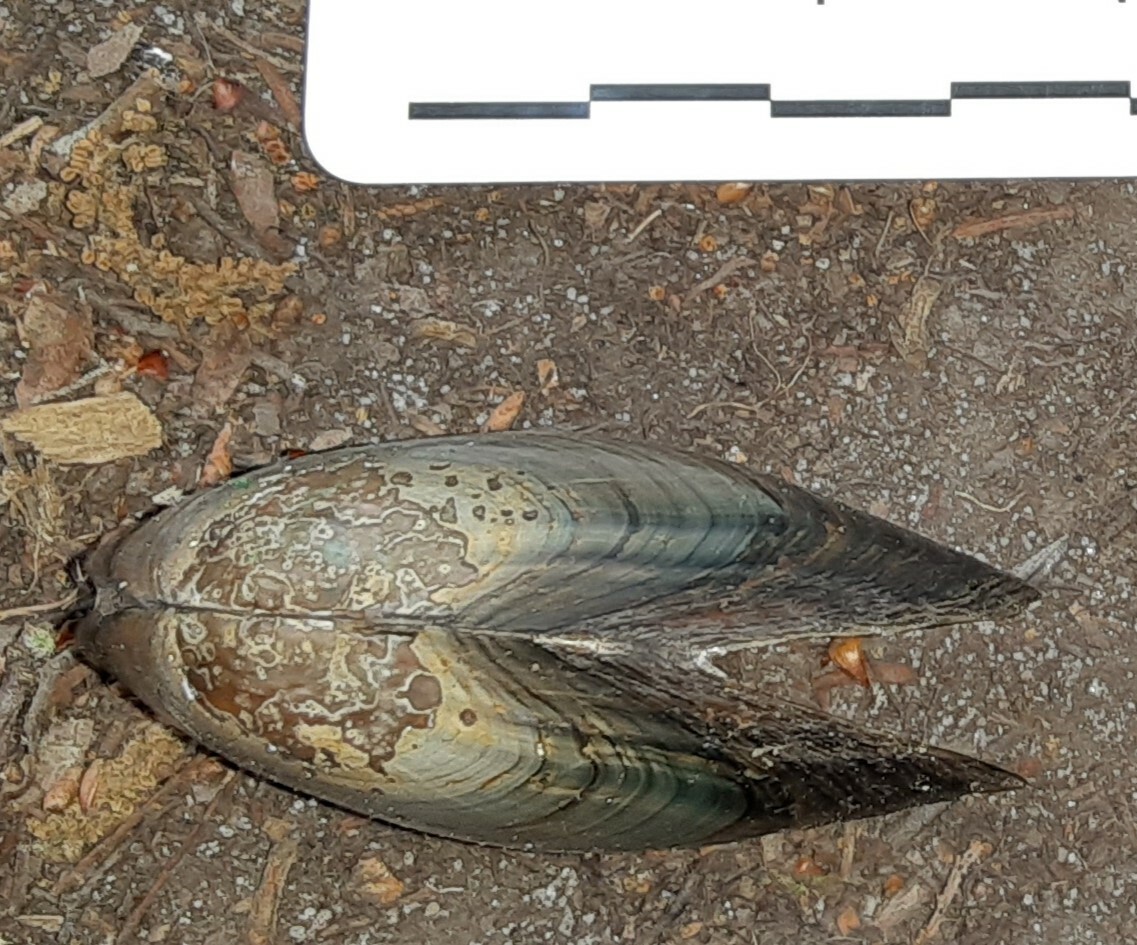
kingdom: Animalia
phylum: Mollusca
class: Bivalvia
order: Unionida
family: Unionidae
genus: Utterbackia
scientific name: Utterbackia imbecillis
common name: Paper pondshell
